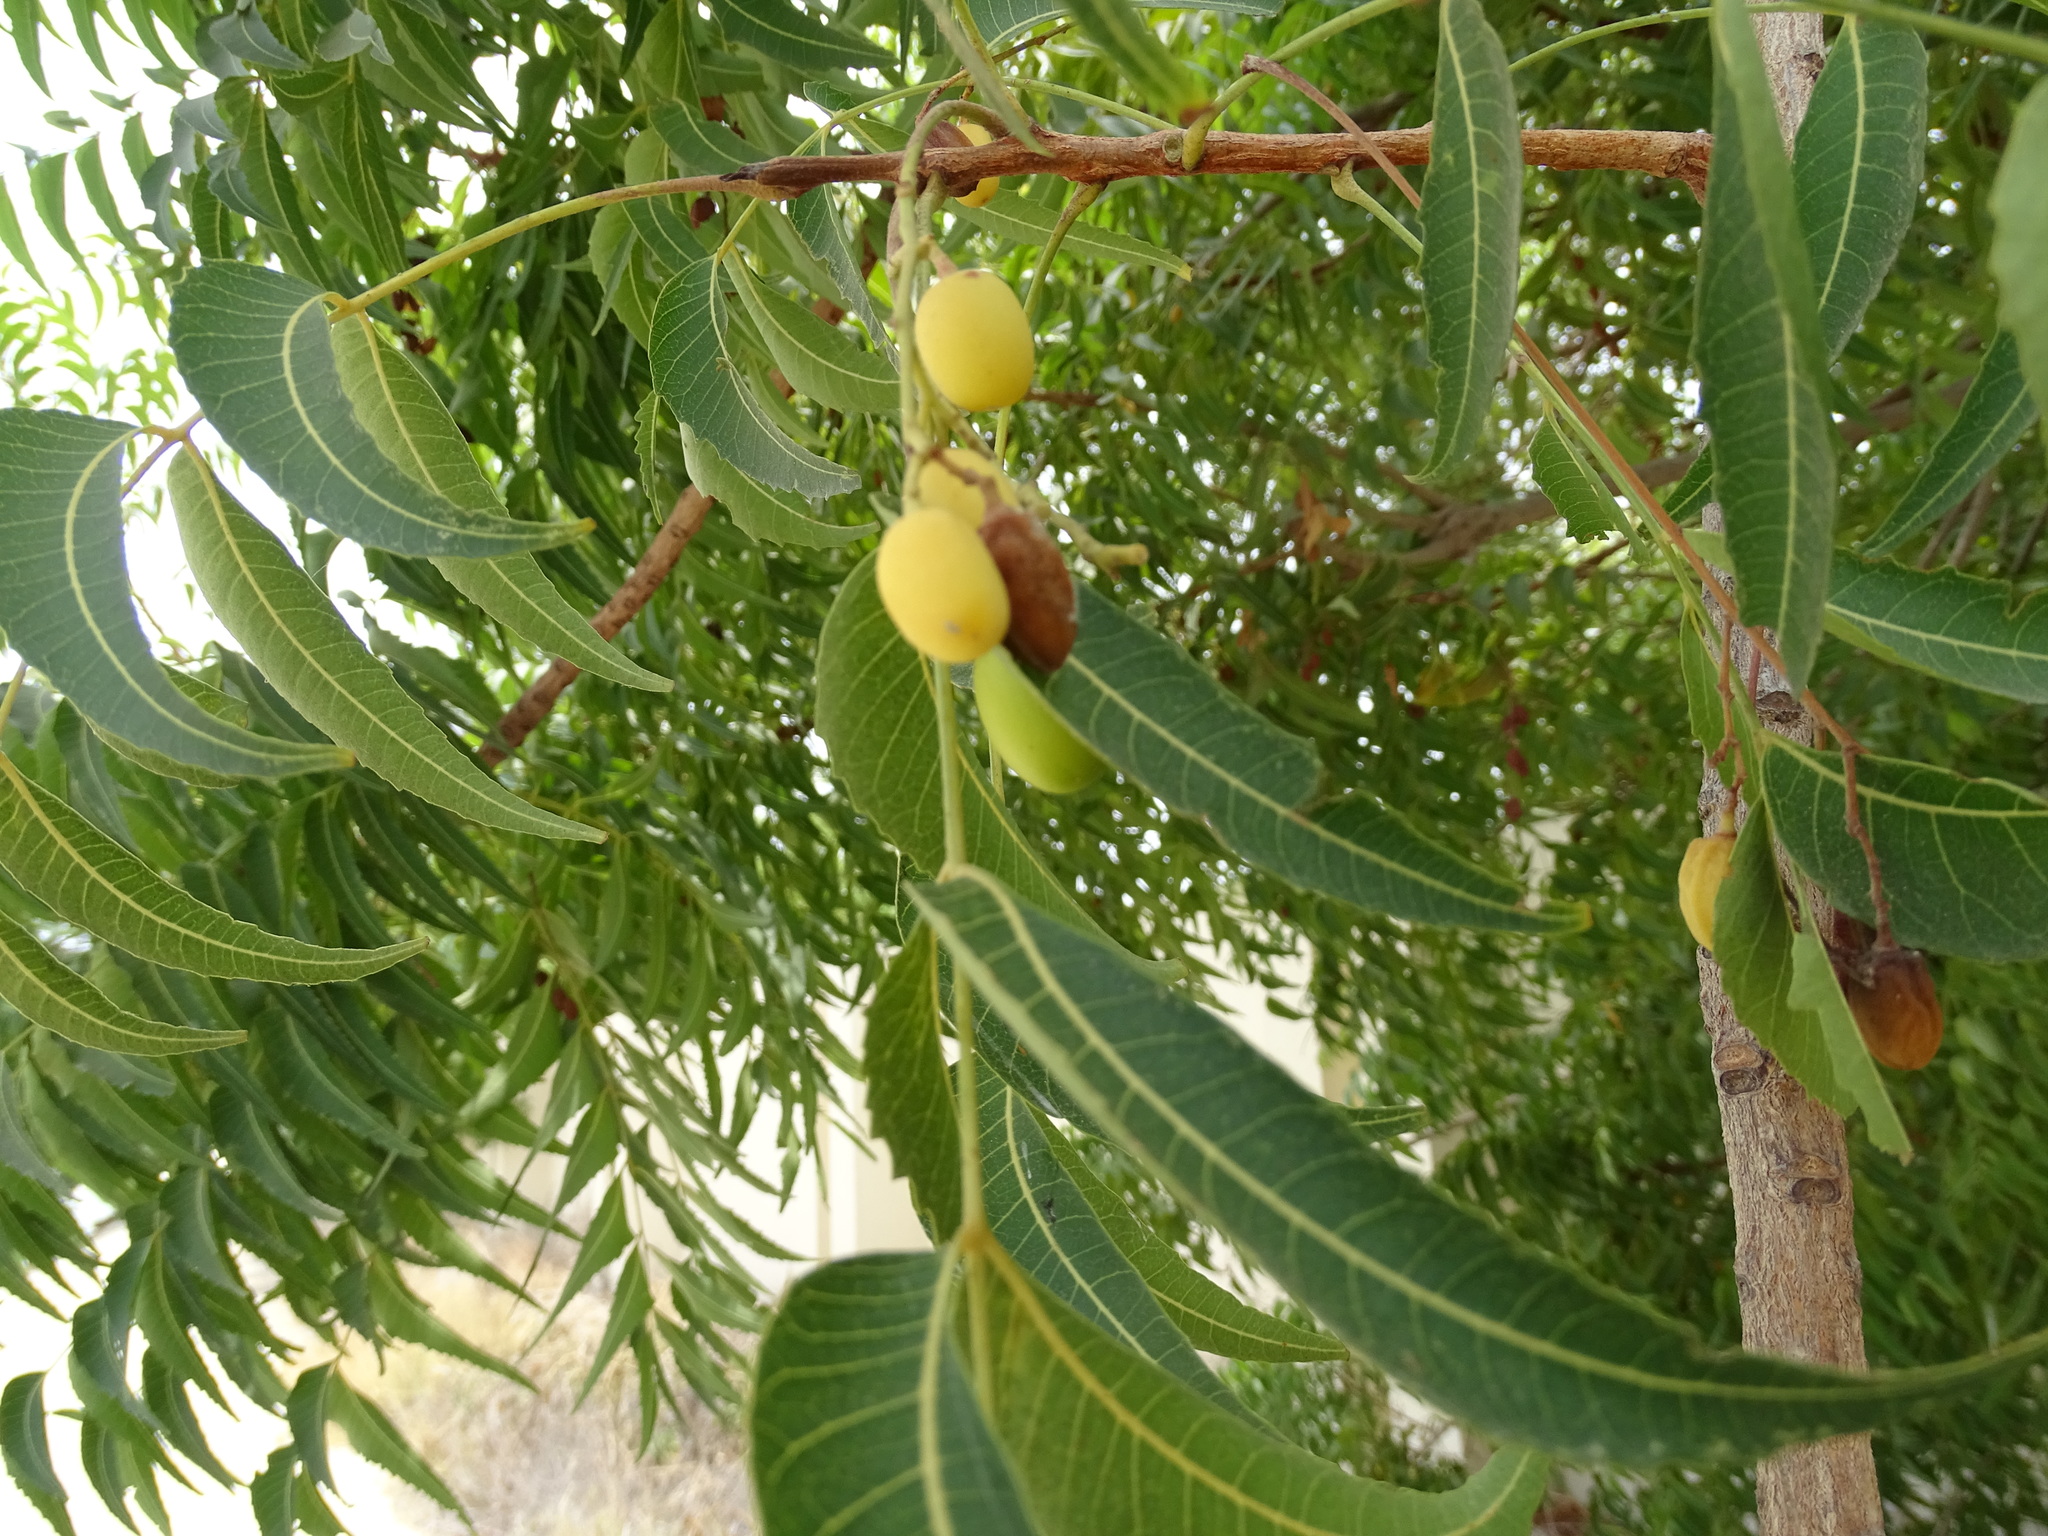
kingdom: Plantae
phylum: Tracheophyta
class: Magnoliopsida
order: Sapindales
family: Meliaceae
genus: Azadirachta
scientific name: Azadirachta indica
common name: Neem
